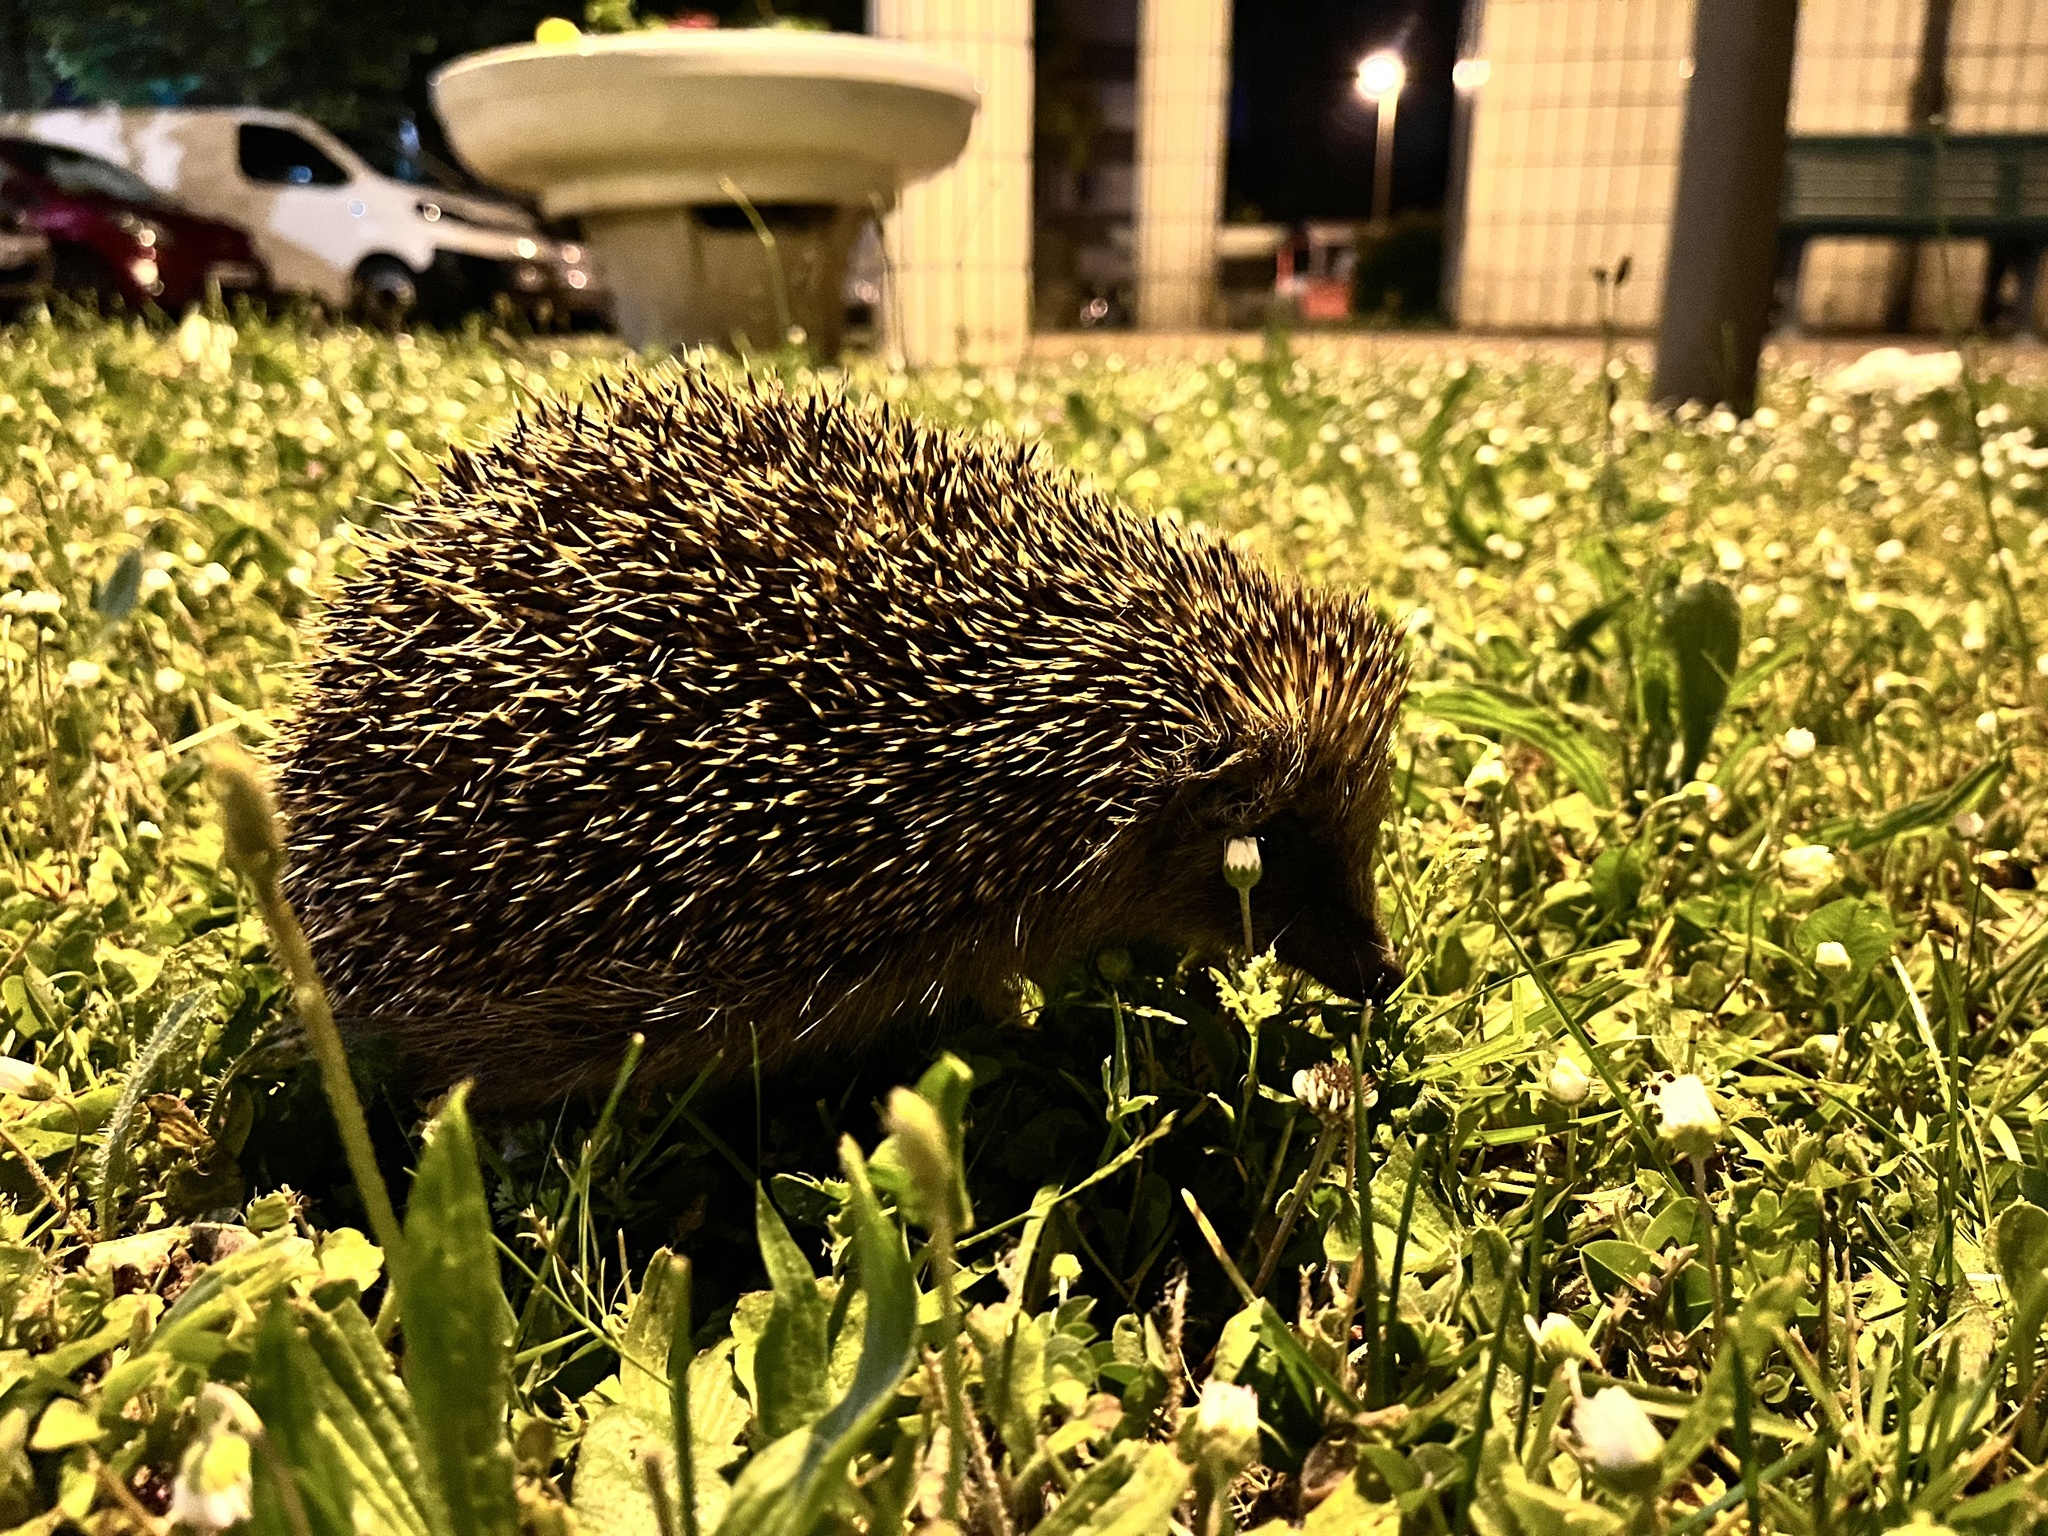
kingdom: Animalia
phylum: Chordata
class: Mammalia
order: Erinaceomorpha
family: Erinaceidae
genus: Erinaceus
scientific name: Erinaceus europaeus
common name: West european hedgehog
